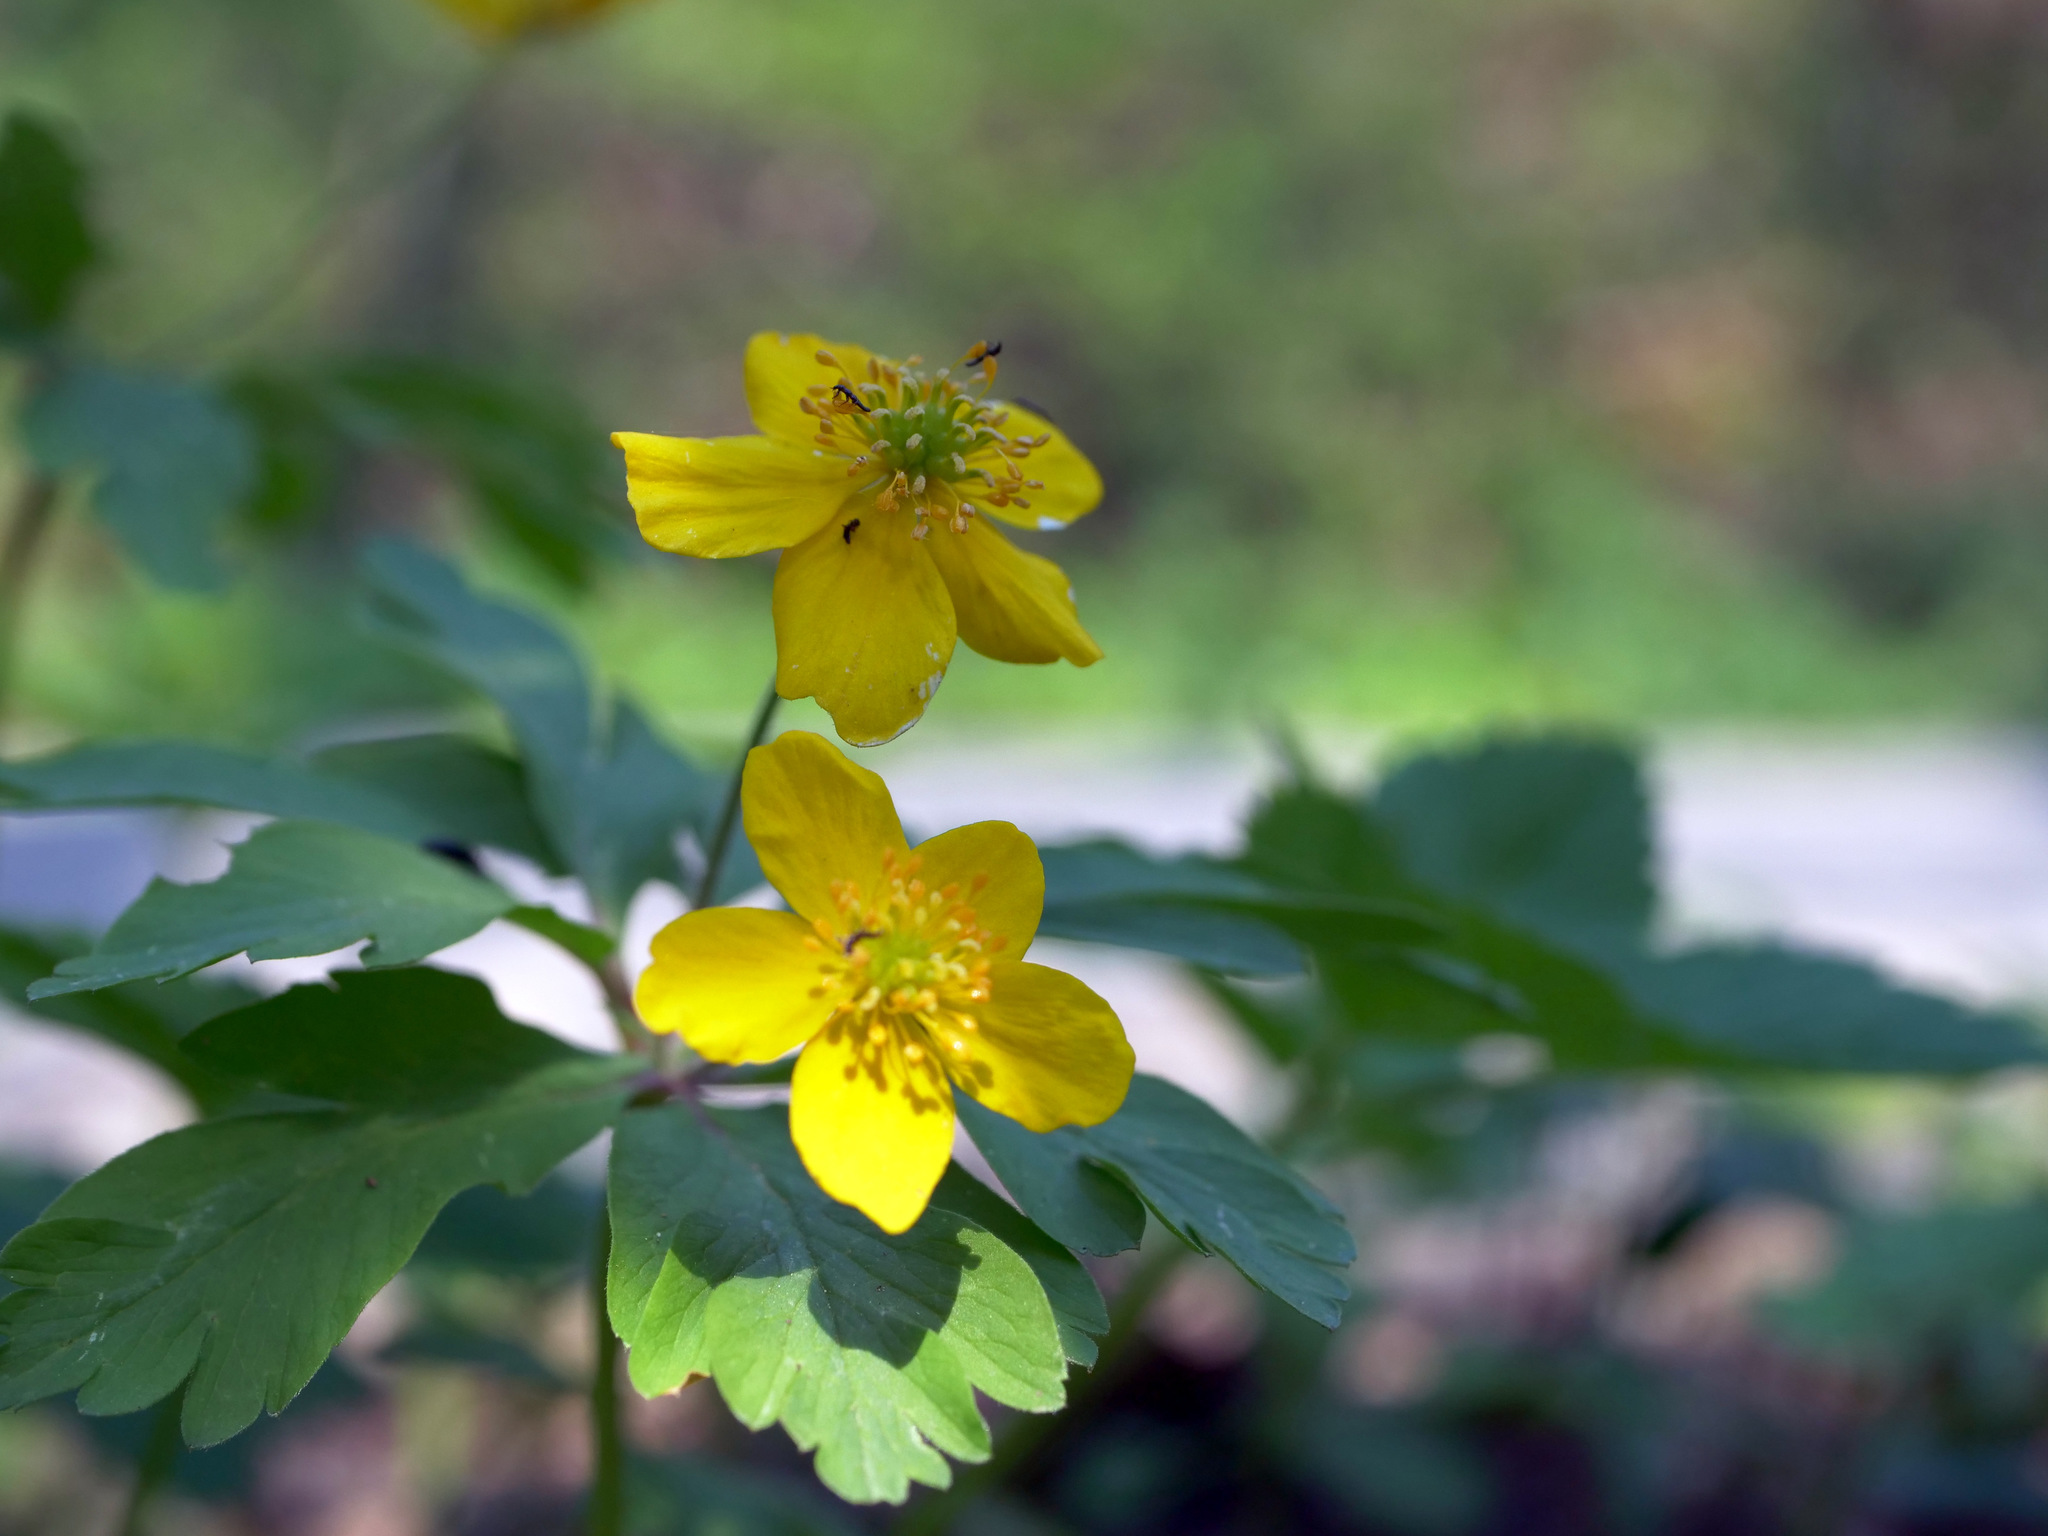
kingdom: Plantae
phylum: Tracheophyta
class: Magnoliopsida
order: Ranunculales
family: Ranunculaceae
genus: Anemone
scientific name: Anemone ranunculoides
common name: Yellow anemone
